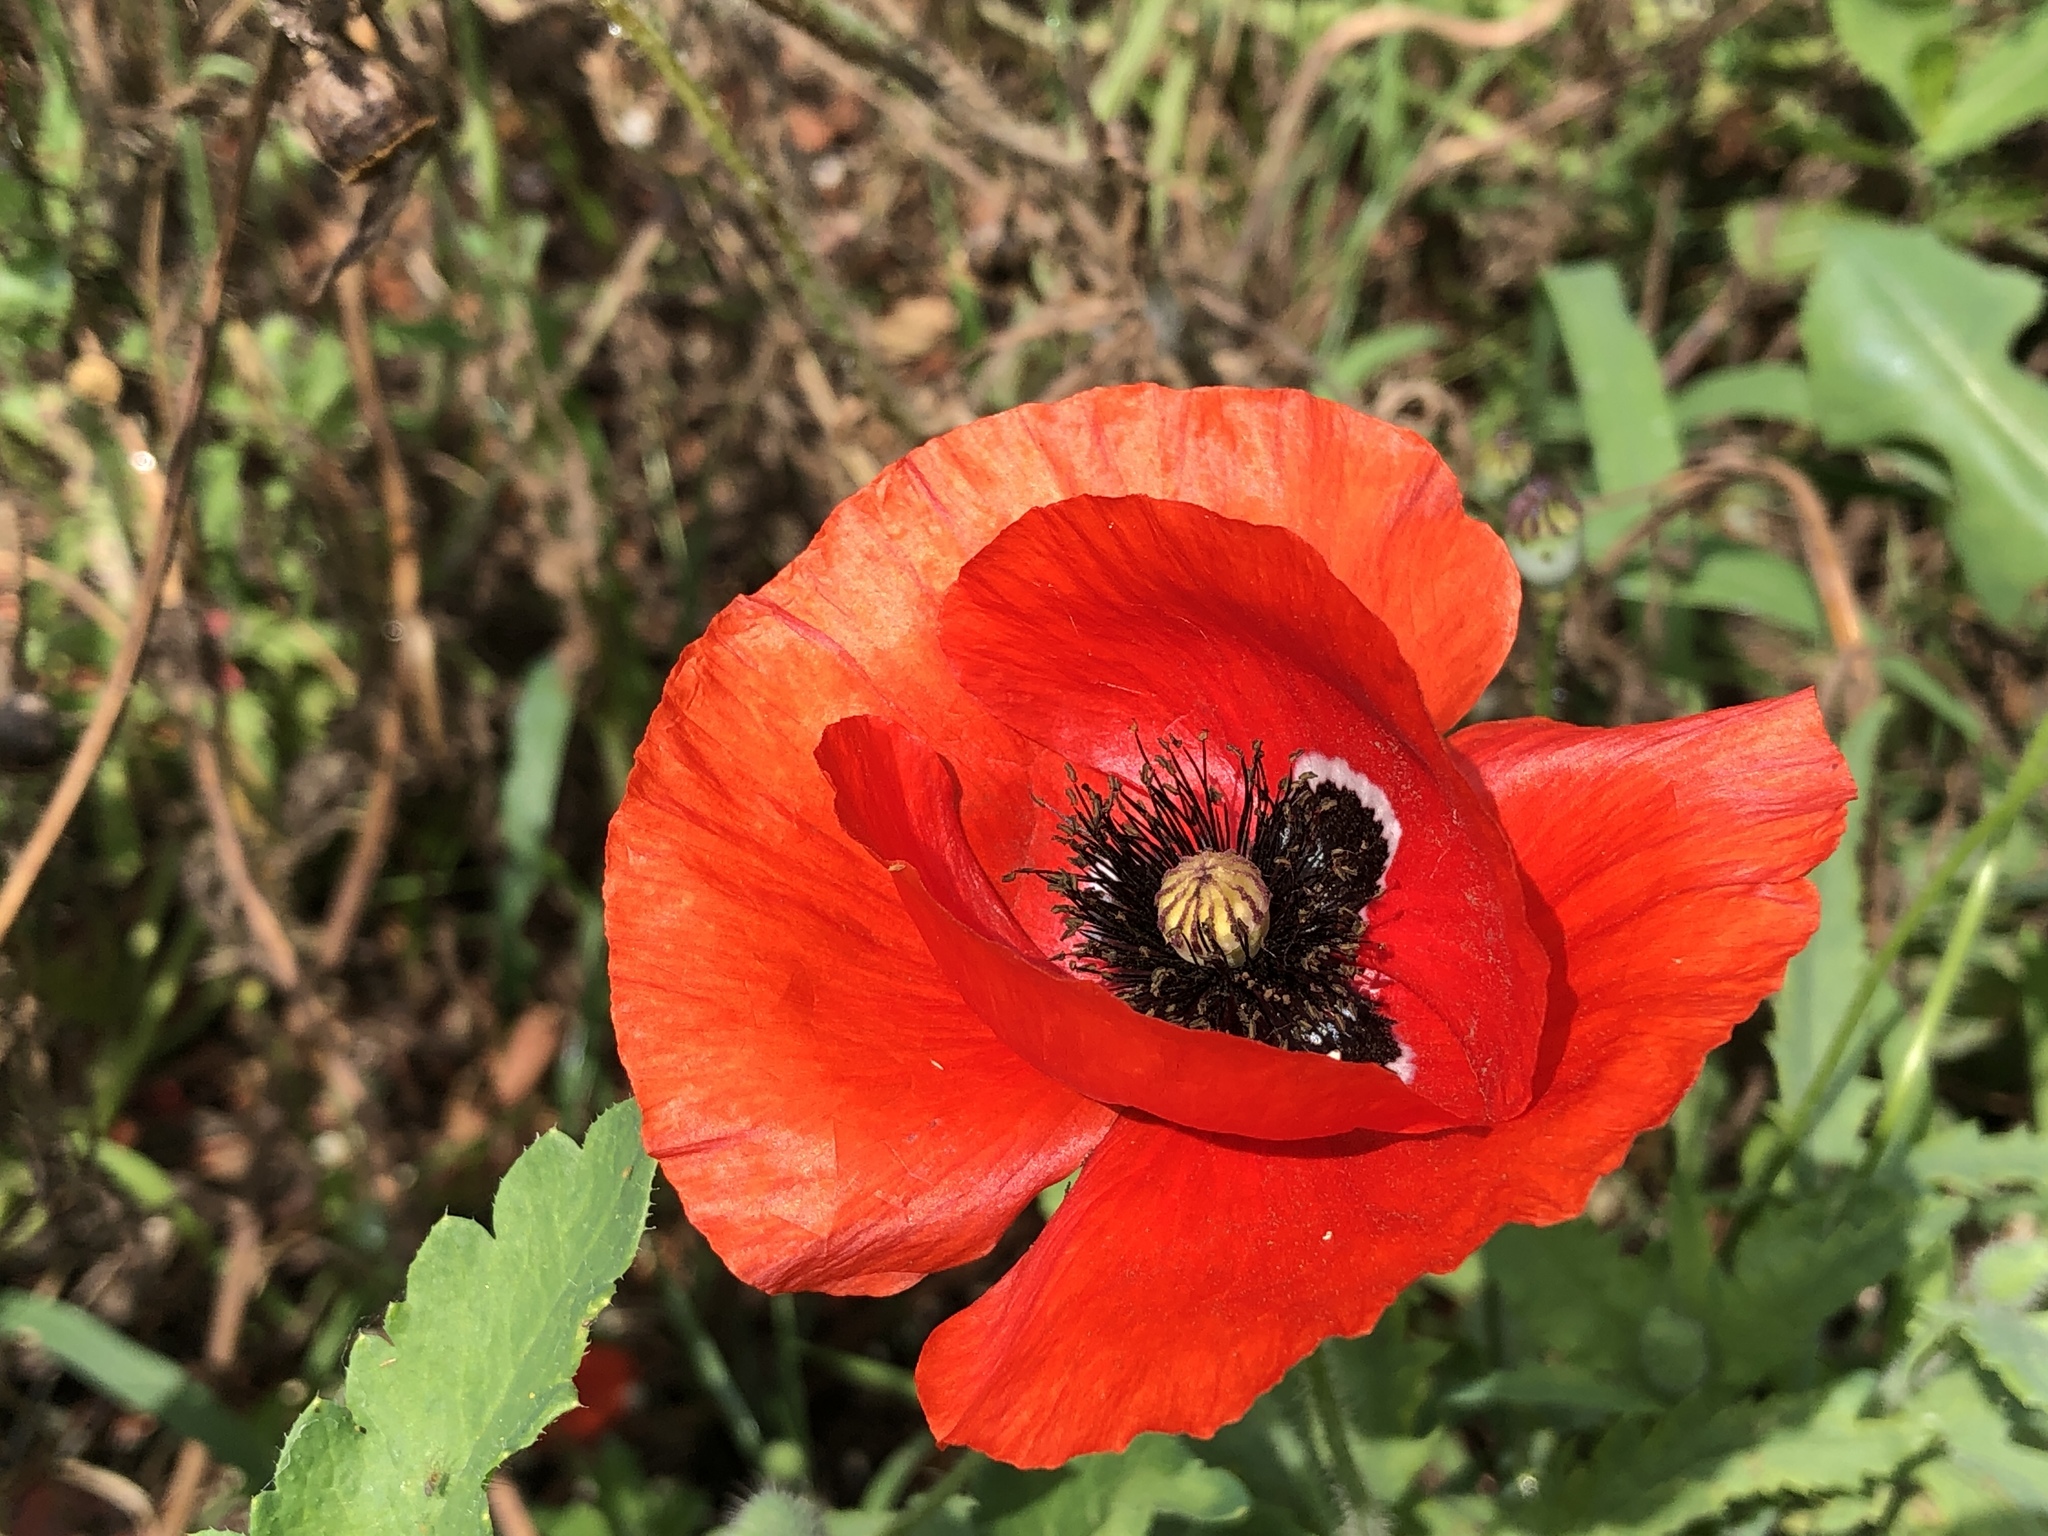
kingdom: Plantae
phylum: Tracheophyta
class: Magnoliopsida
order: Ranunculales
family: Papaveraceae
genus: Papaver
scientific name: Papaver rhoeas
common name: Corn poppy
